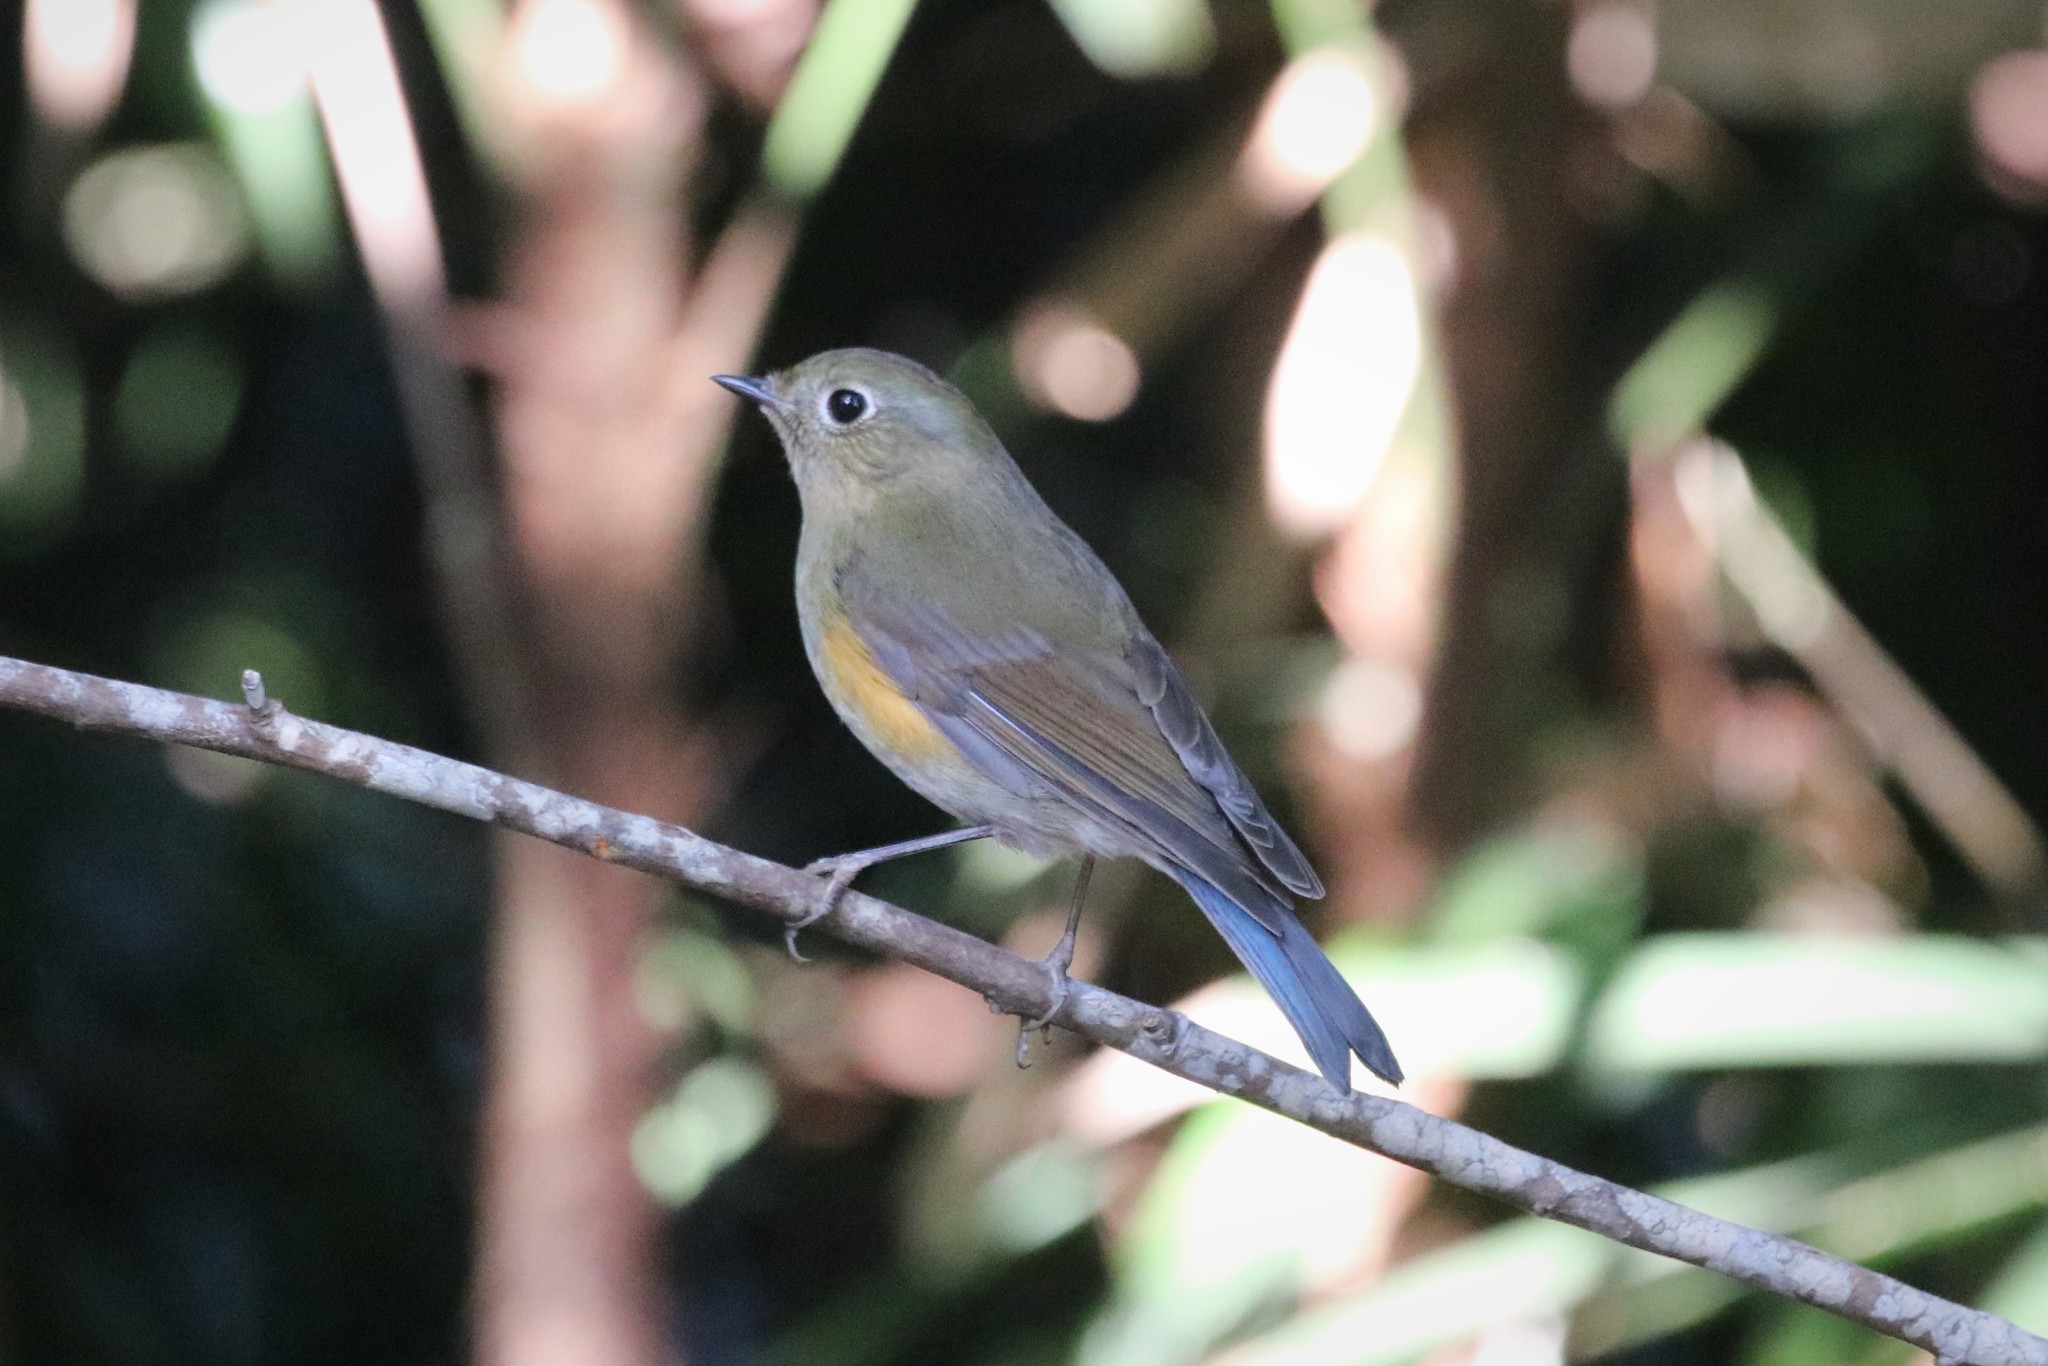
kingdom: Animalia
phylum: Chordata
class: Aves
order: Passeriformes
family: Muscicapidae
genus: Tarsiger
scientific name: Tarsiger cyanurus
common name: Red-flanked bluetail
